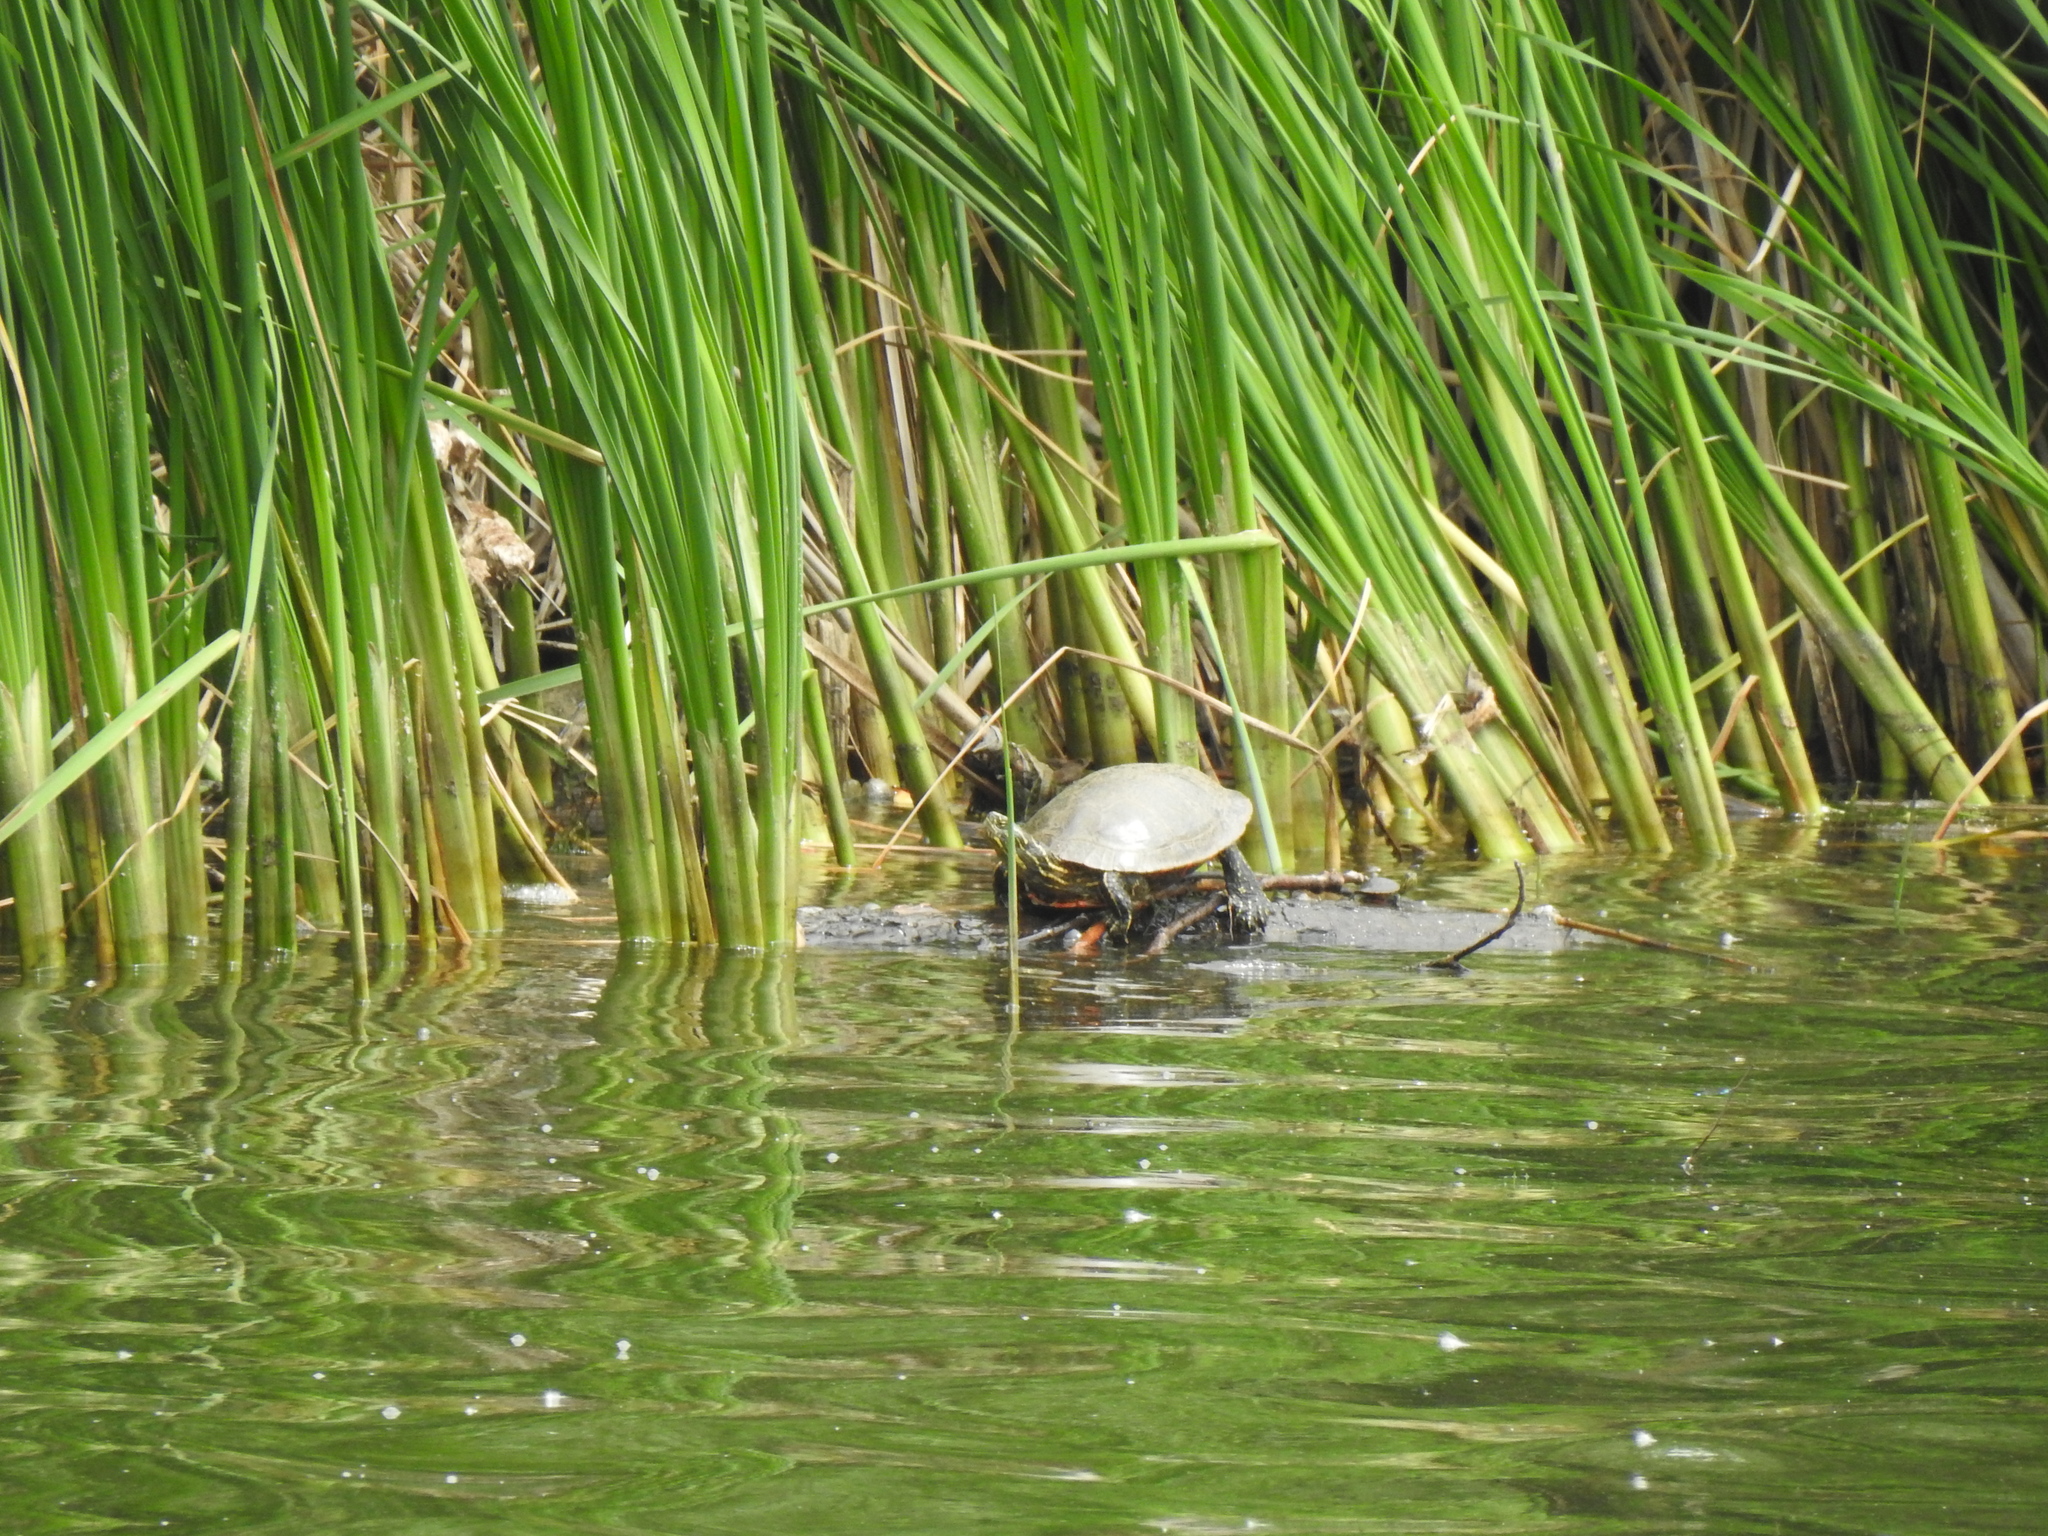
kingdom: Animalia
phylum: Chordata
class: Testudines
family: Emydidae
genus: Chrysemys
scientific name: Chrysemys picta
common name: Painted turtle
